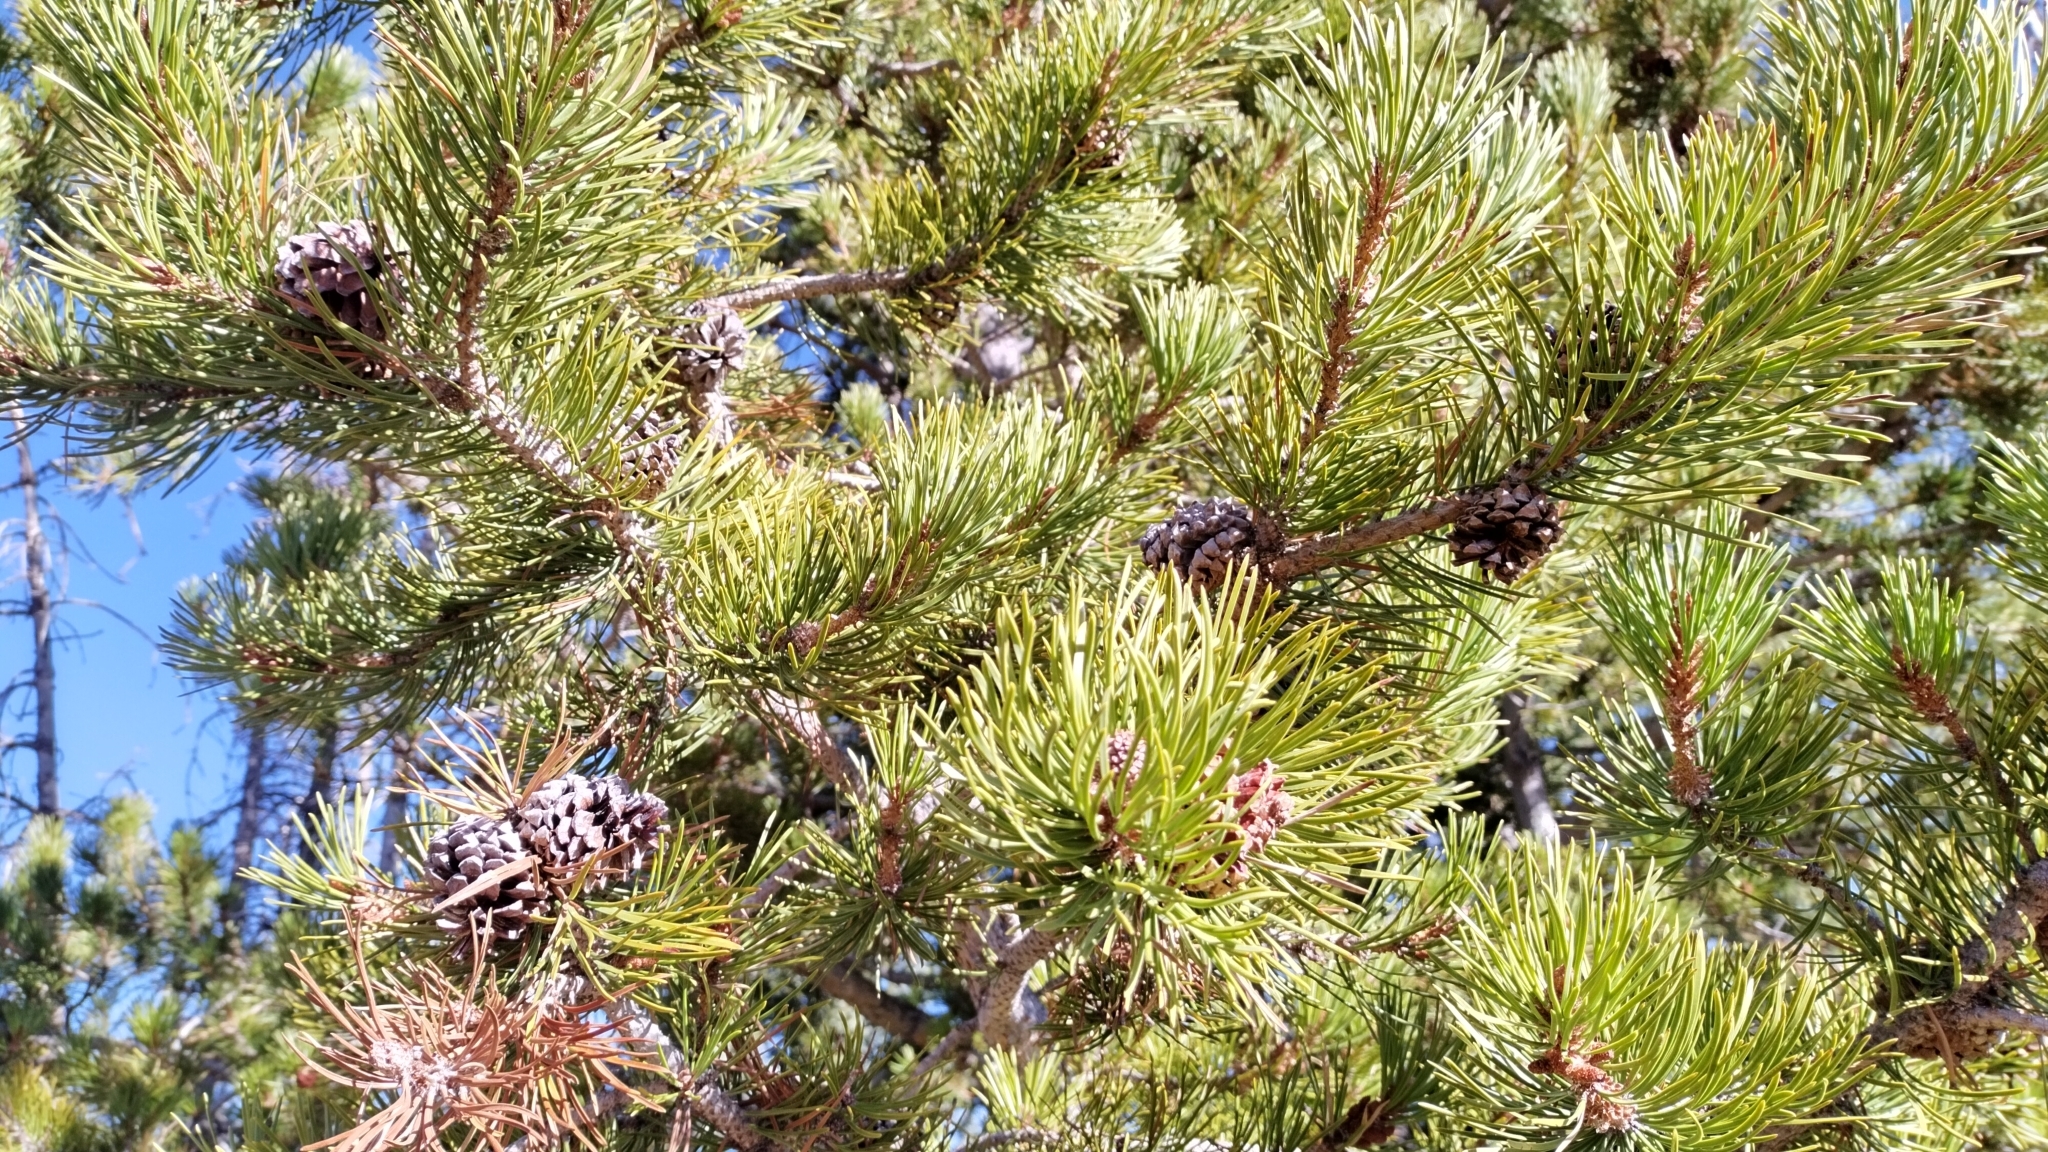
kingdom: Plantae
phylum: Tracheophyta
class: Pinopsida
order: Pinales
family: Pinaceae
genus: Pinus
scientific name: Pinus contorta
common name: Lodgepole pine
